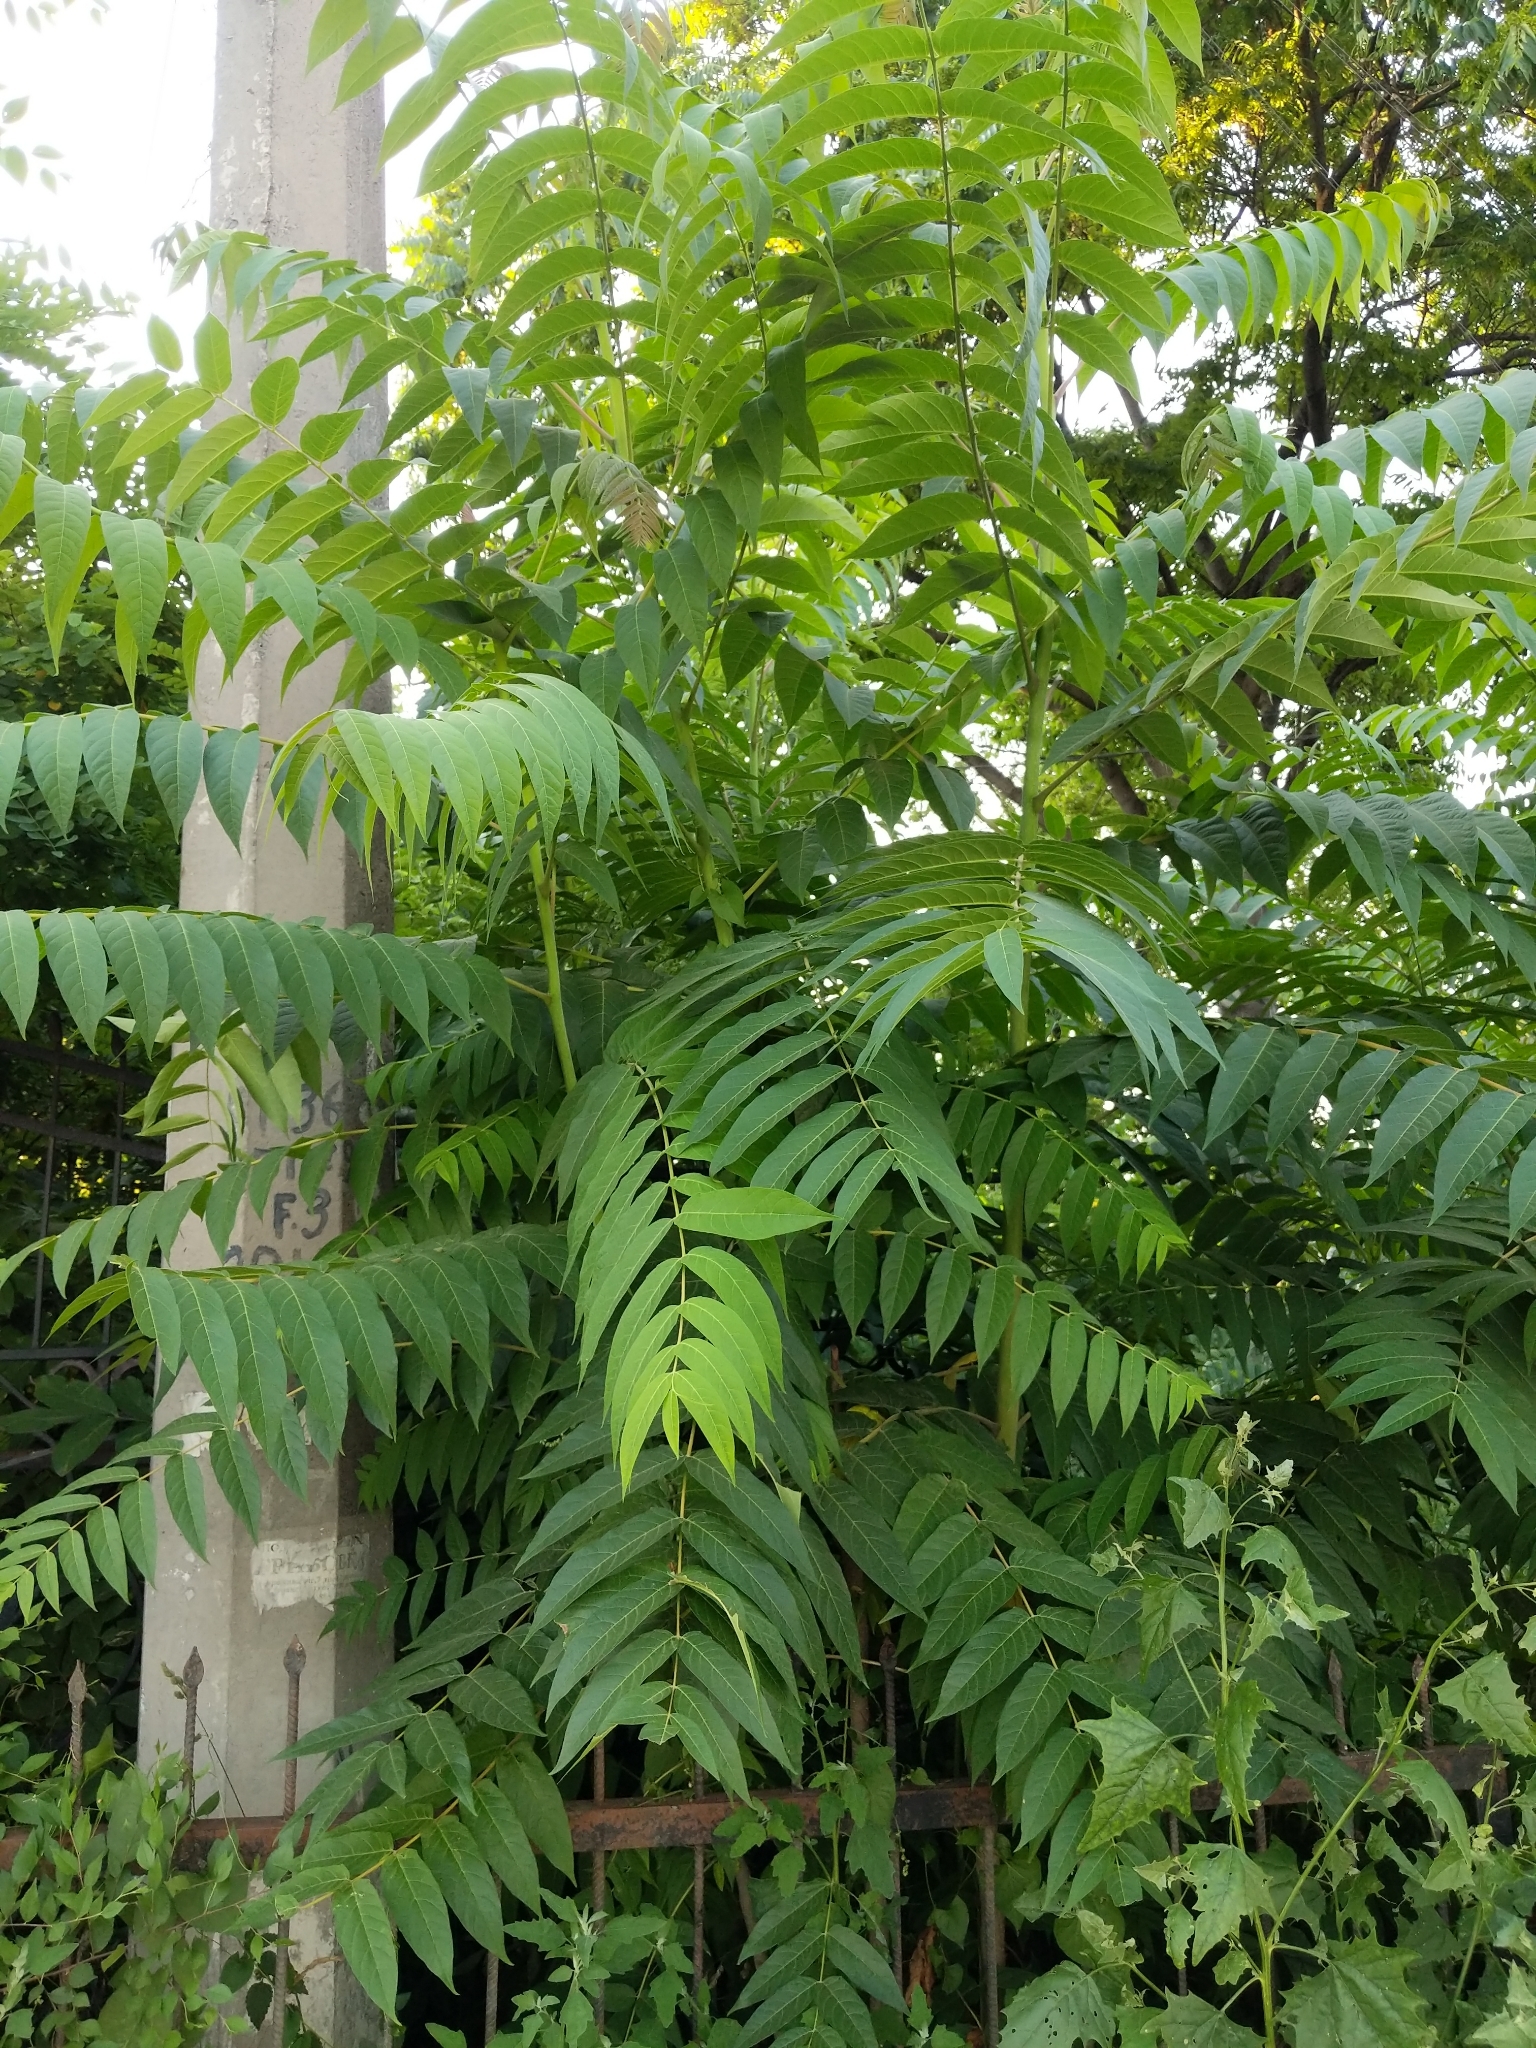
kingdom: Plantae
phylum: Tracheophyta
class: Magnoliopsida
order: Sapindales
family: Simaroubaceae
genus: Ailanthus
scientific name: Ailanthus altissima
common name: Tree-of-heaven
